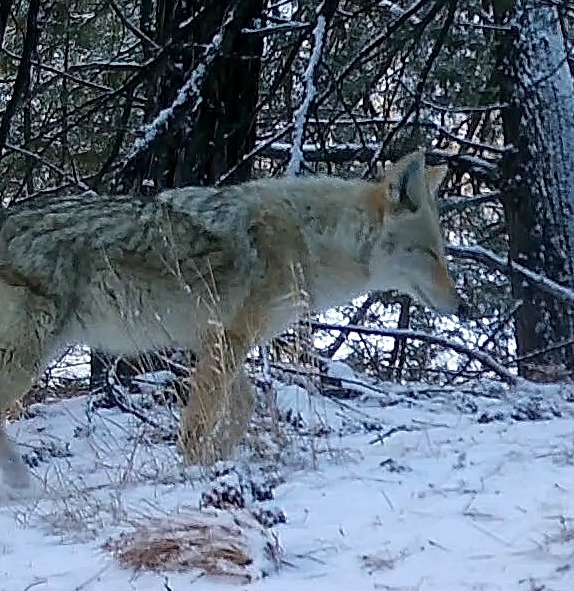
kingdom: Animalia
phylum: Chordata
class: Mammalia
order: Carnivora
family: Canidae
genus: Canis
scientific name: Canis latrans
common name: Coyote
